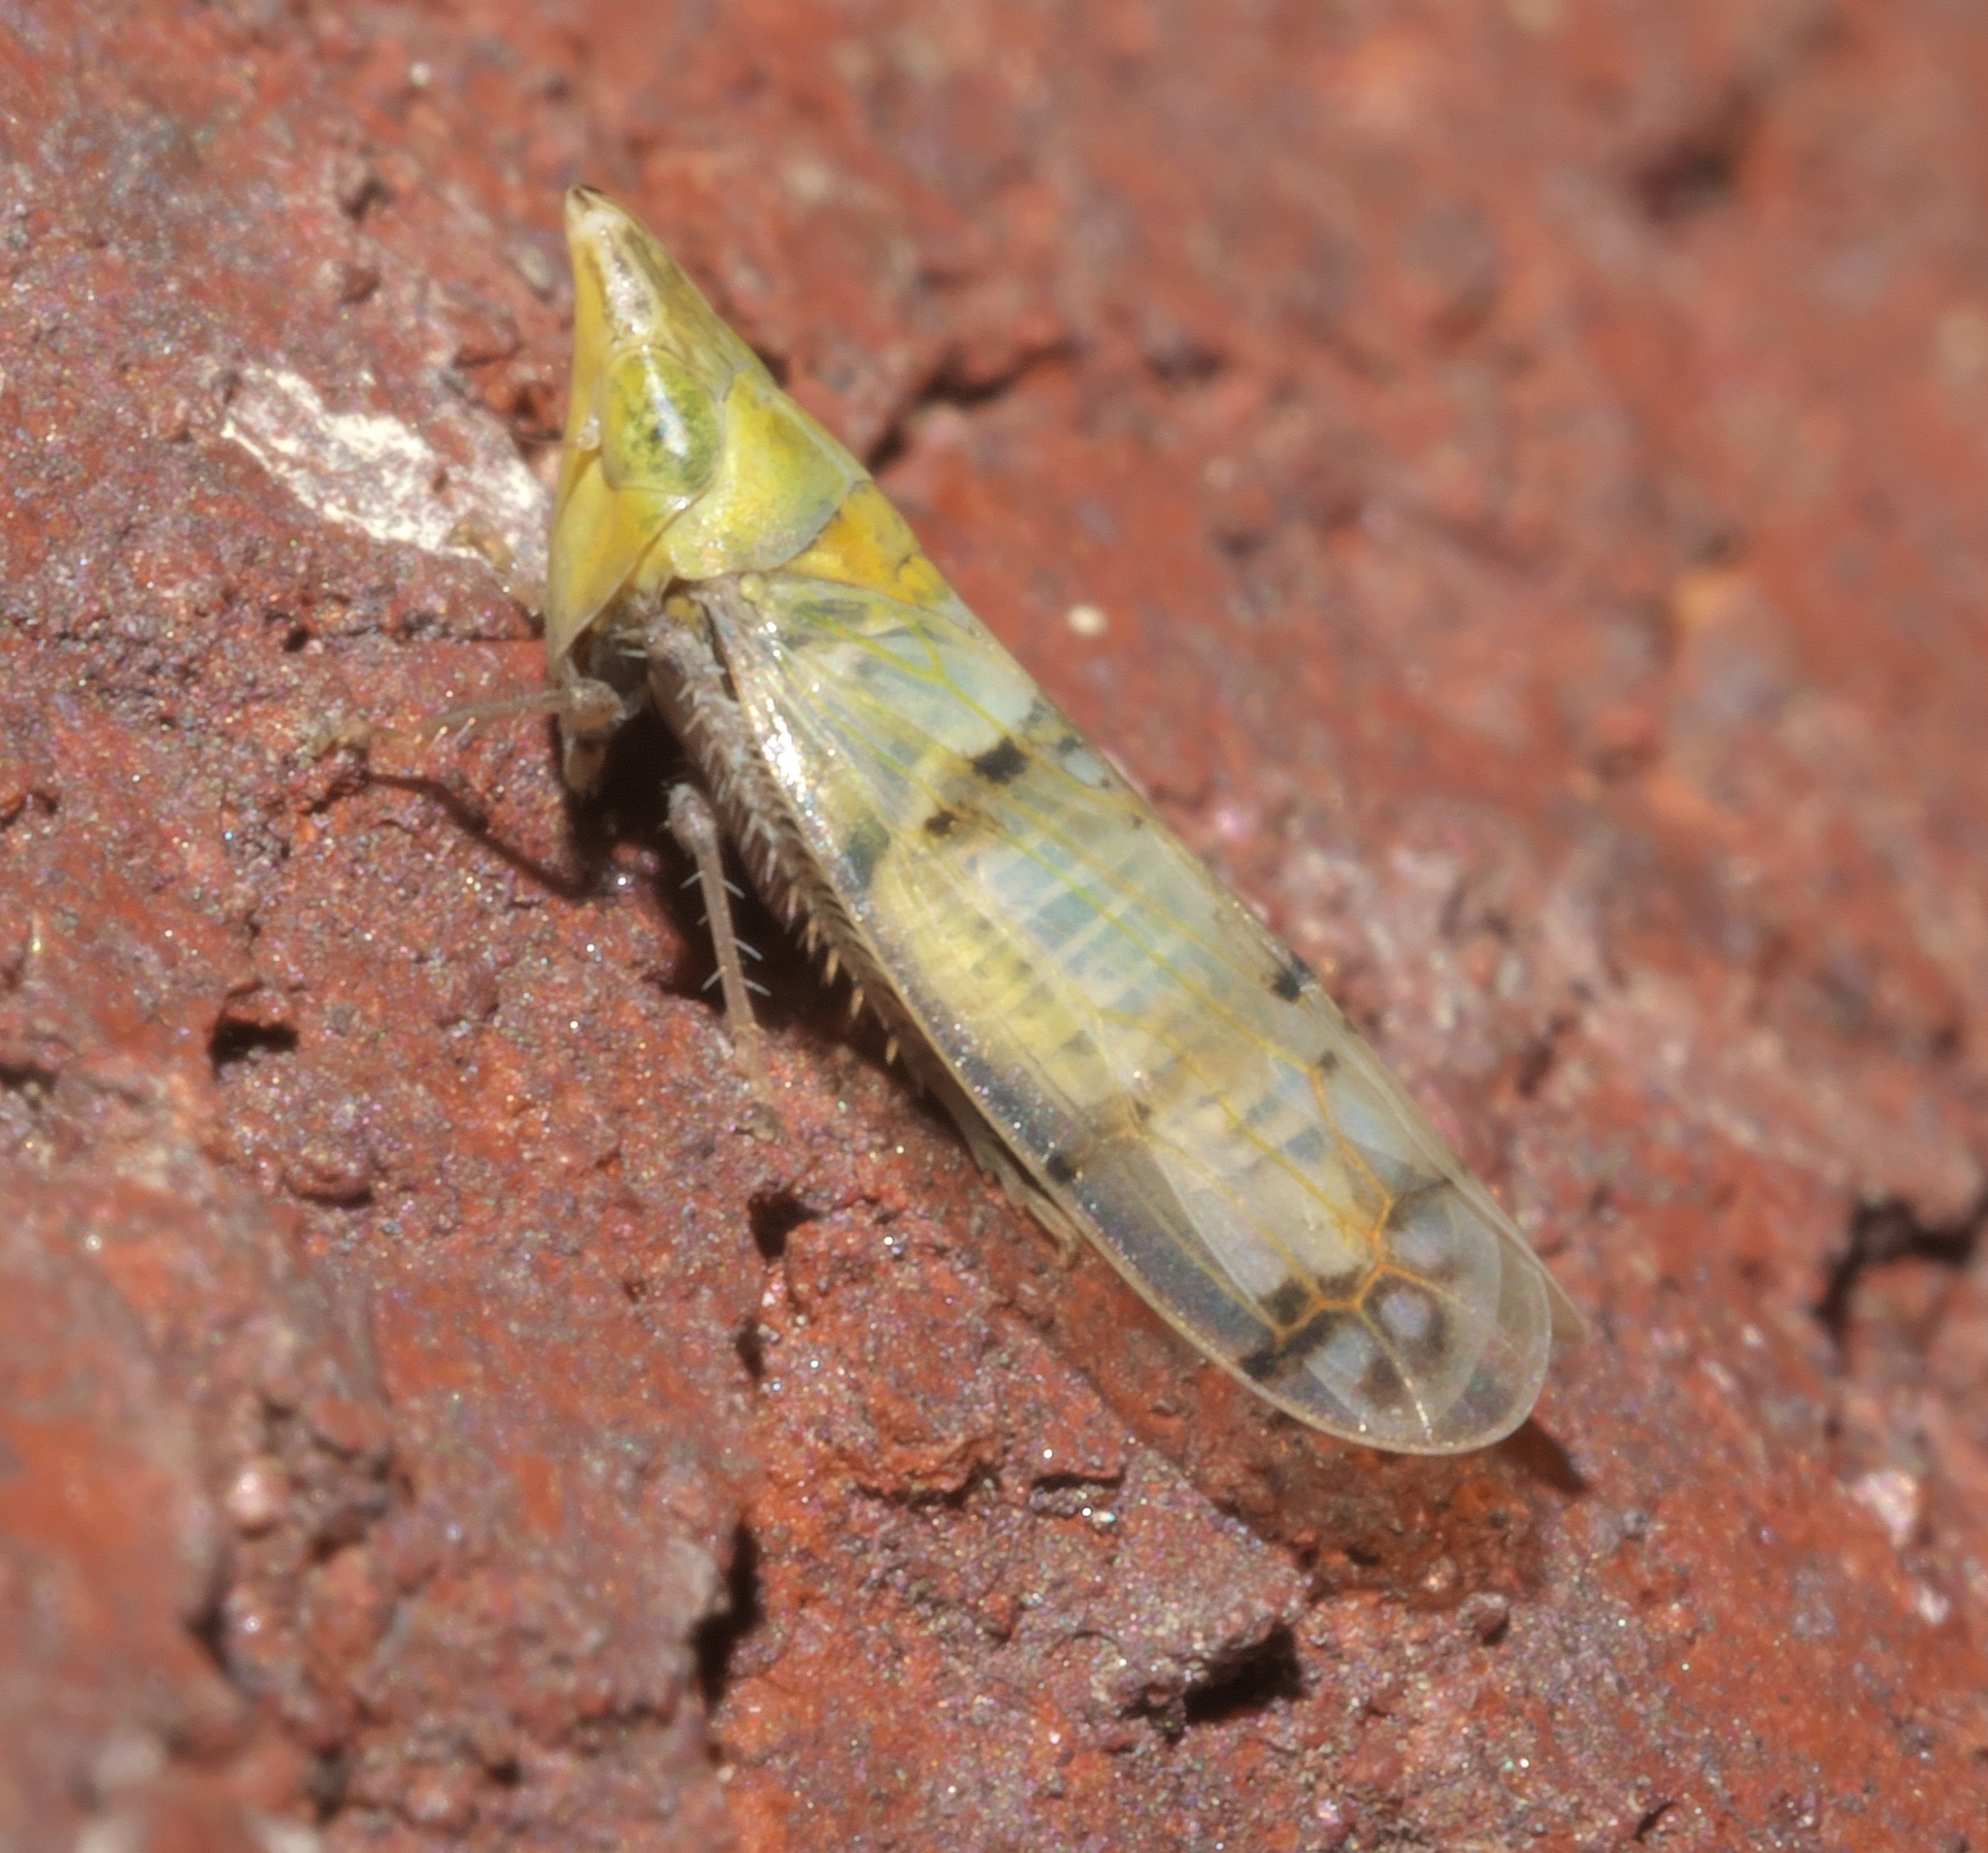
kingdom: Animalia
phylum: Arthropoda
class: Insecta
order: Hemiptera
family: Cicadellidae
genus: Japananus
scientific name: Japananus hyalinus
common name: The japanese maple leafhopper
